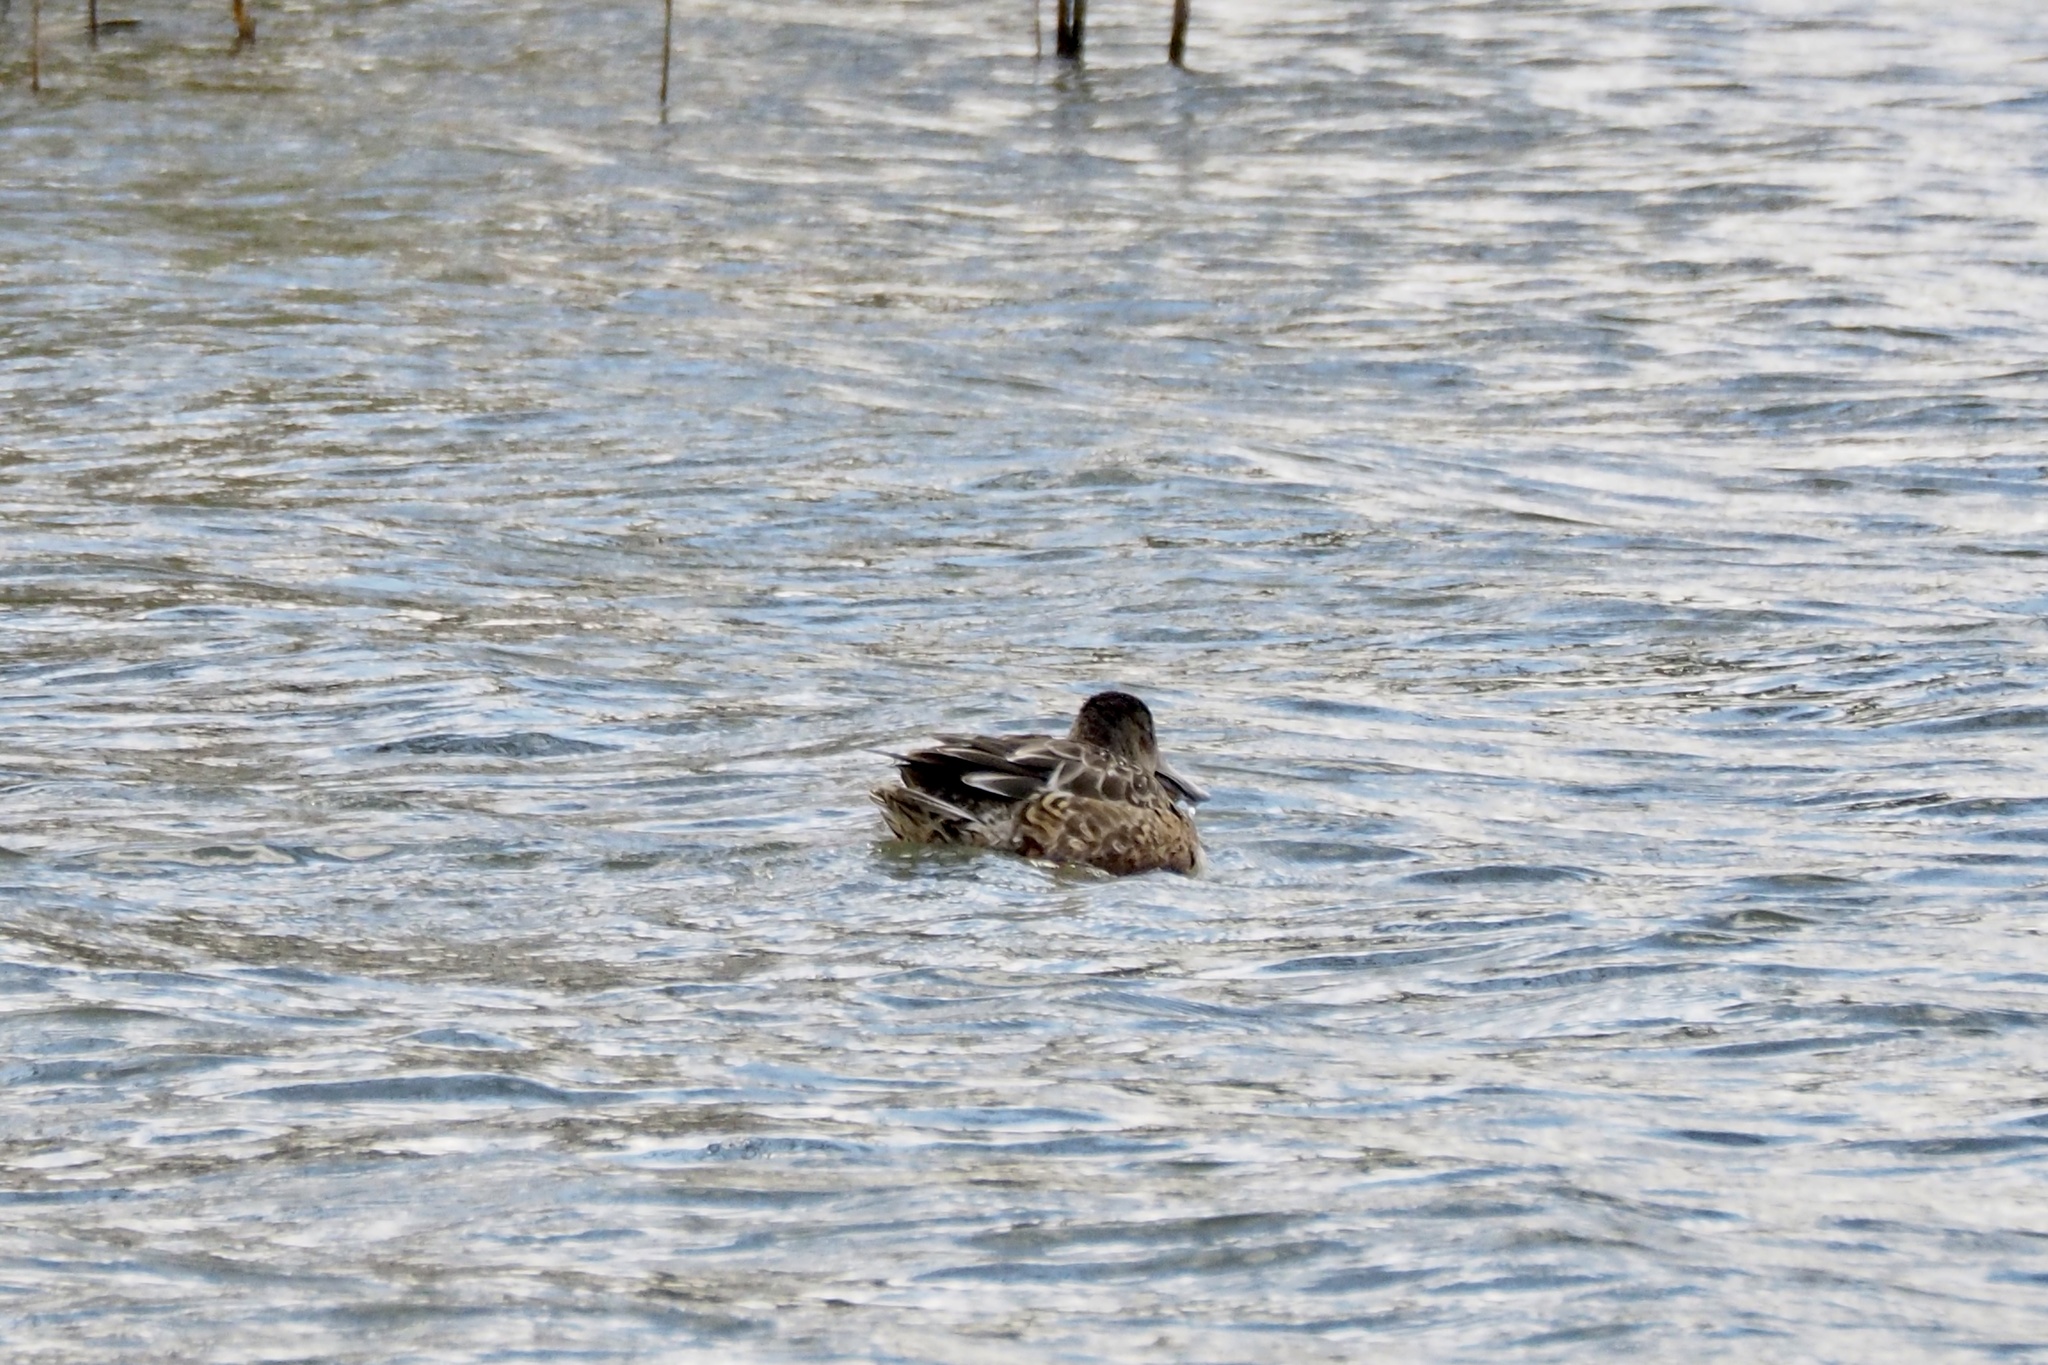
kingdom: Animalia
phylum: Chordata
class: Aves
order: Anseriformes
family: Anatidae
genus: Spatula
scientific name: Spatula clypeata
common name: Northern shoveler
